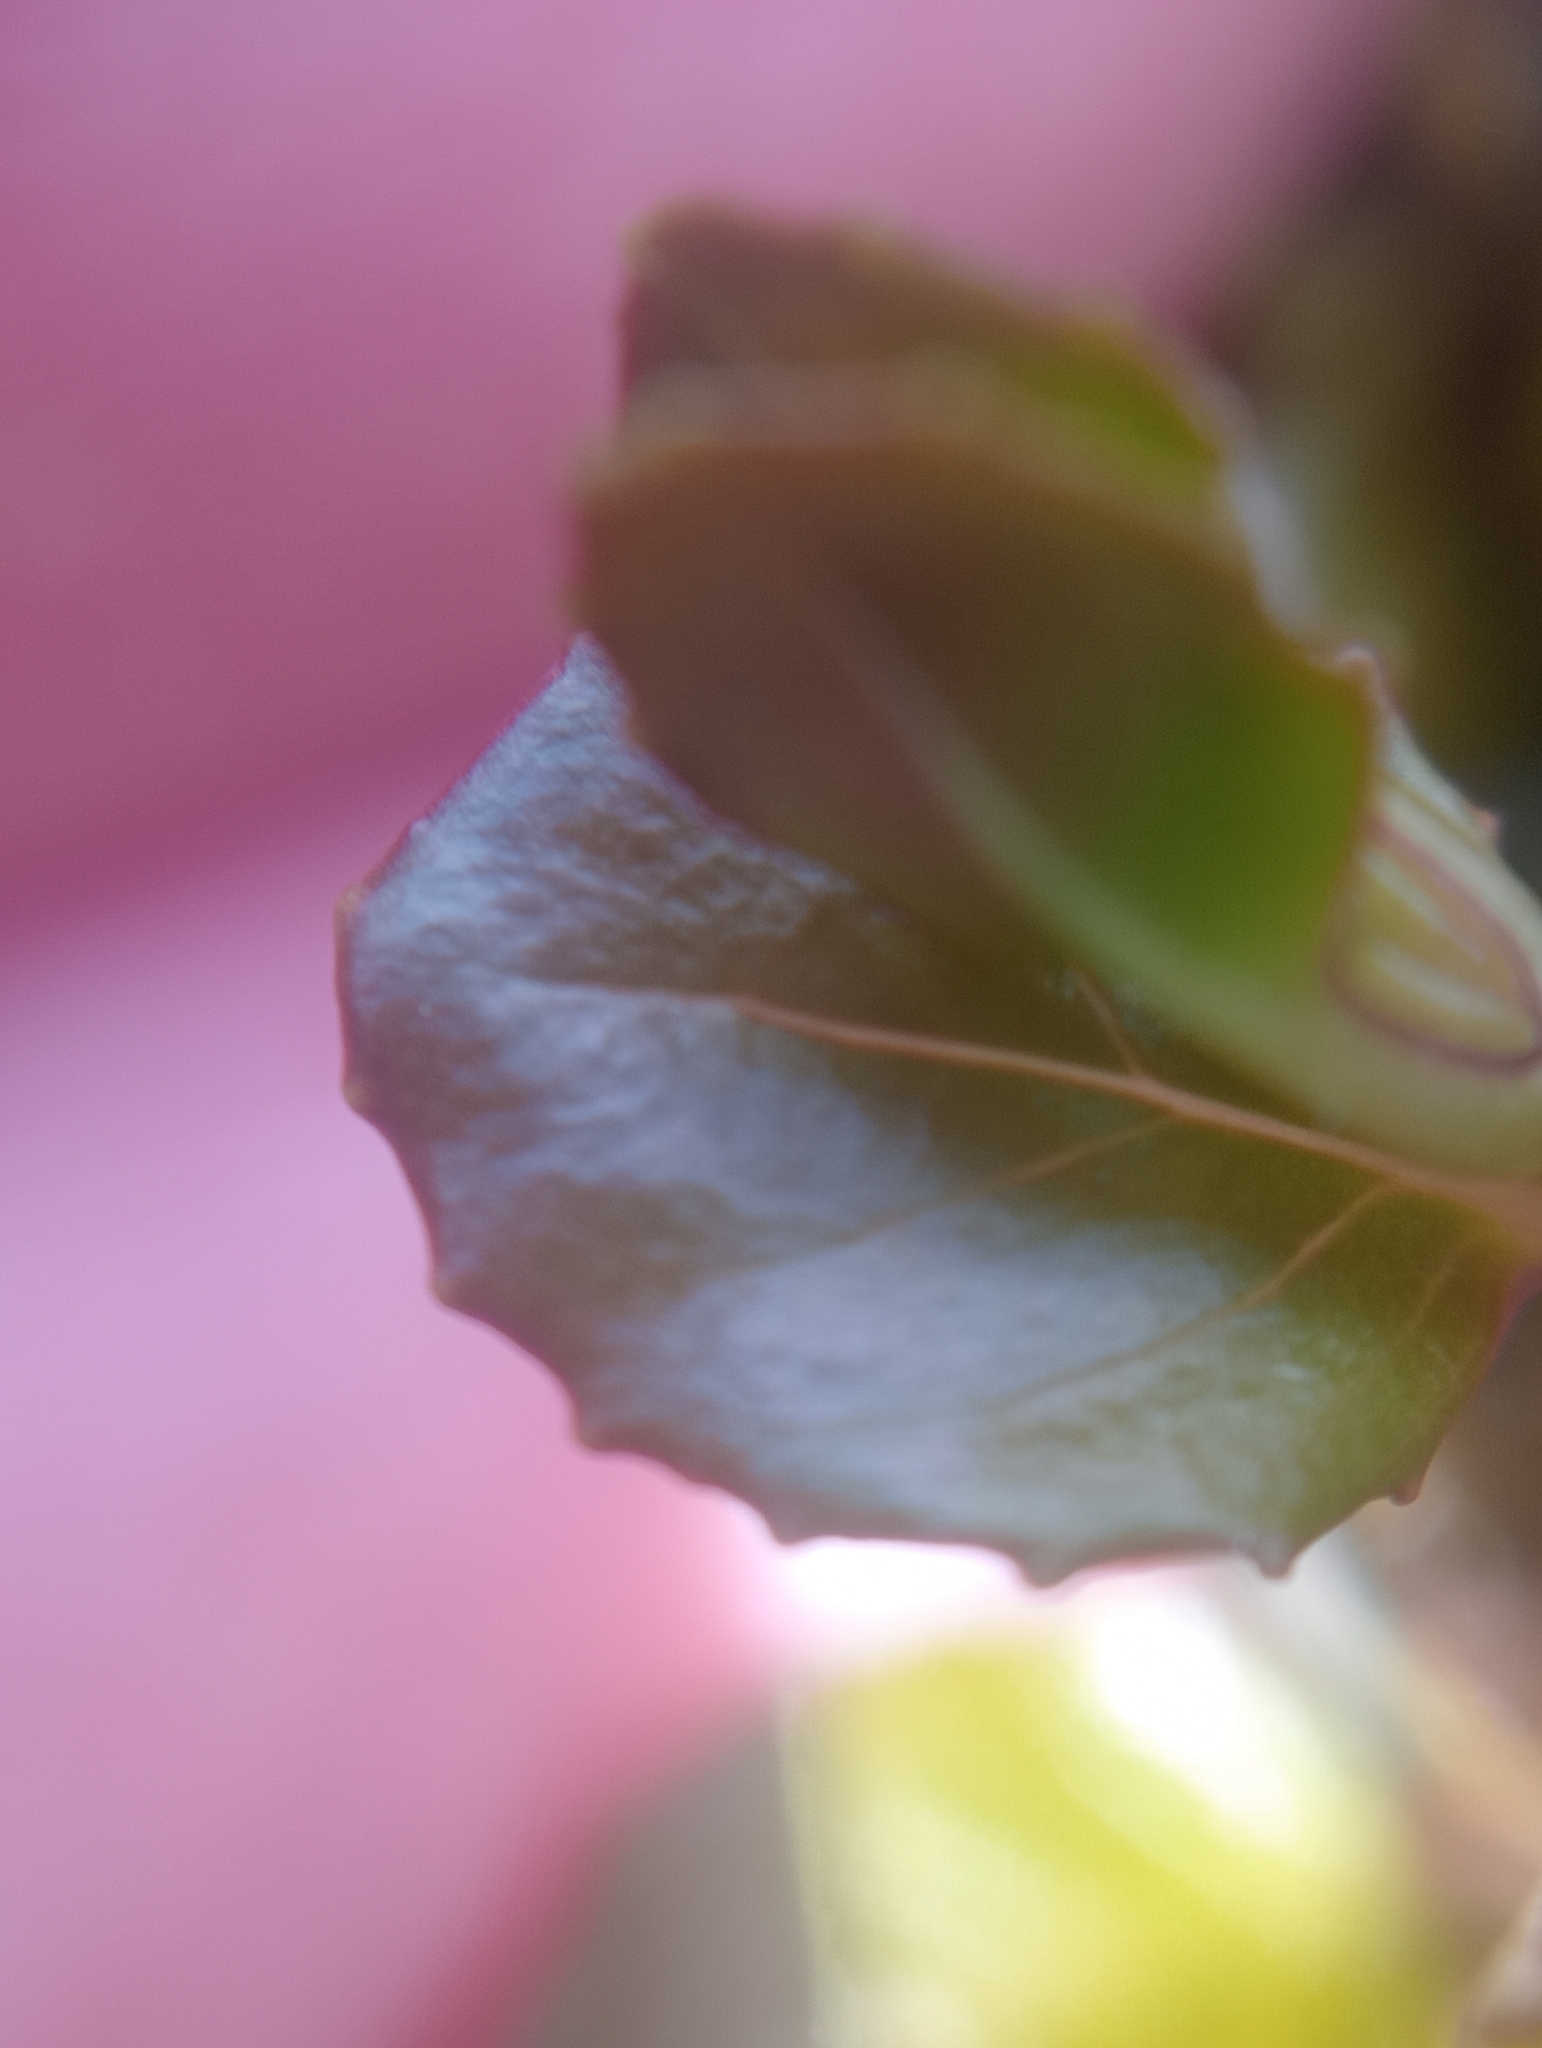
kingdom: Plantae
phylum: Tracheophyta
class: Magnoliopsida
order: Myrtales
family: Onagraceae
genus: Epilobium
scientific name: Epilobium pedunculare
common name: Rockery willowherb
